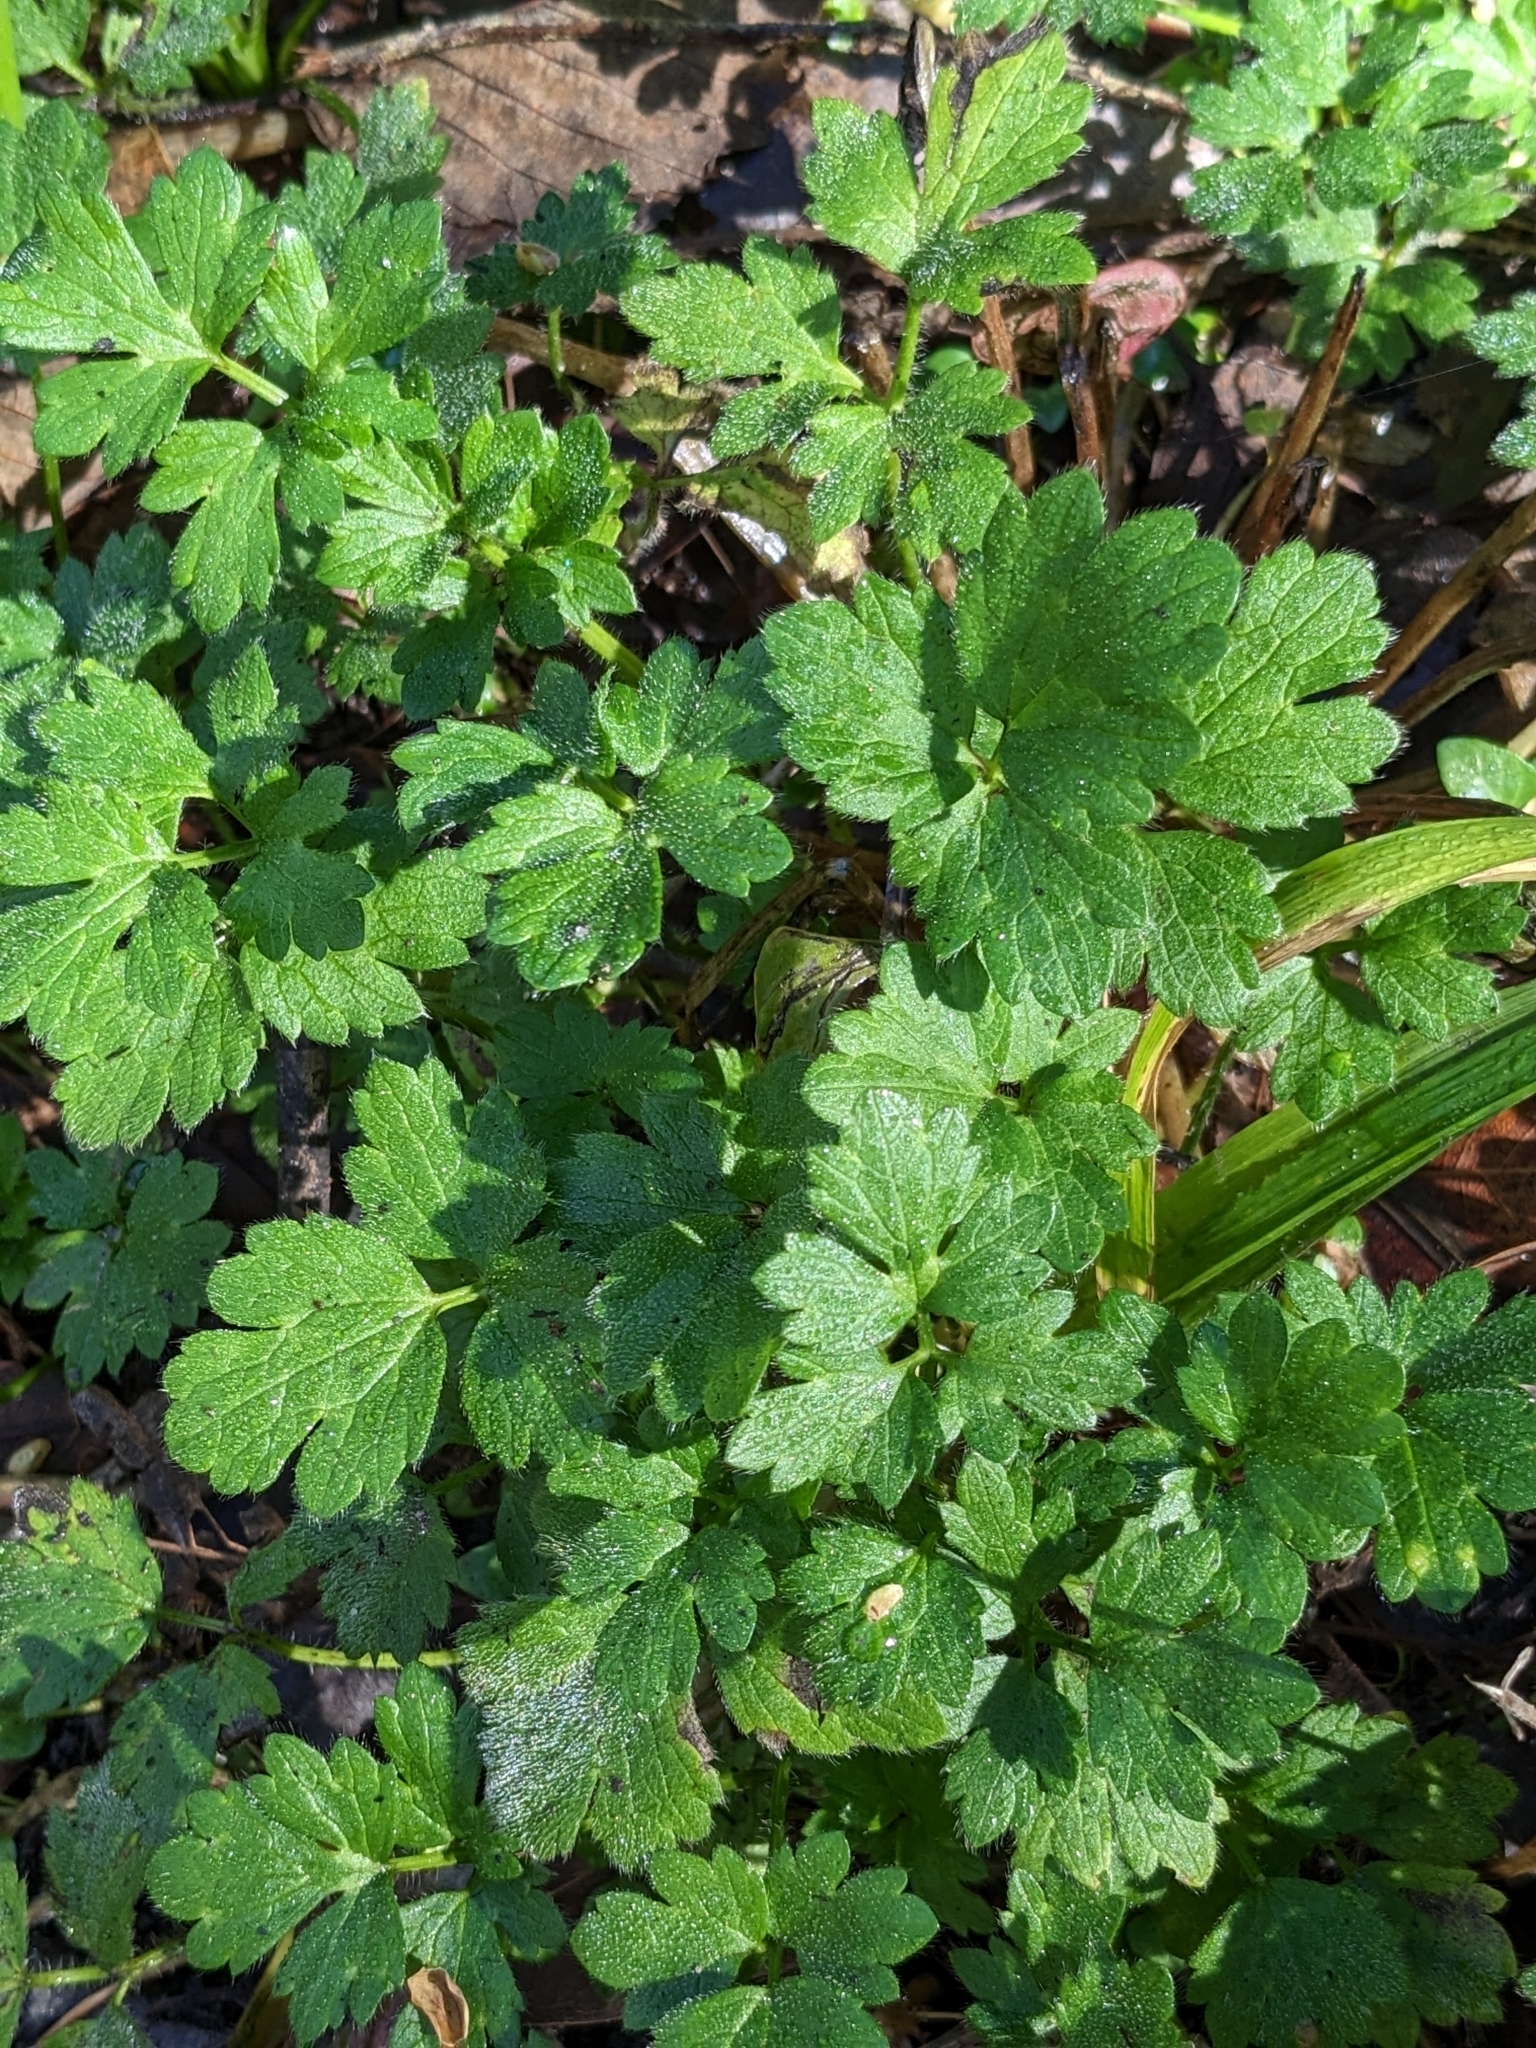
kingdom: Plantae
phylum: Tracheophyta
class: Magnoliopsida
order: Ranunculales
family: Ranunculaceae
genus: Ranunculus
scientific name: Ranunculus repens
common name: Creeping buttercup
